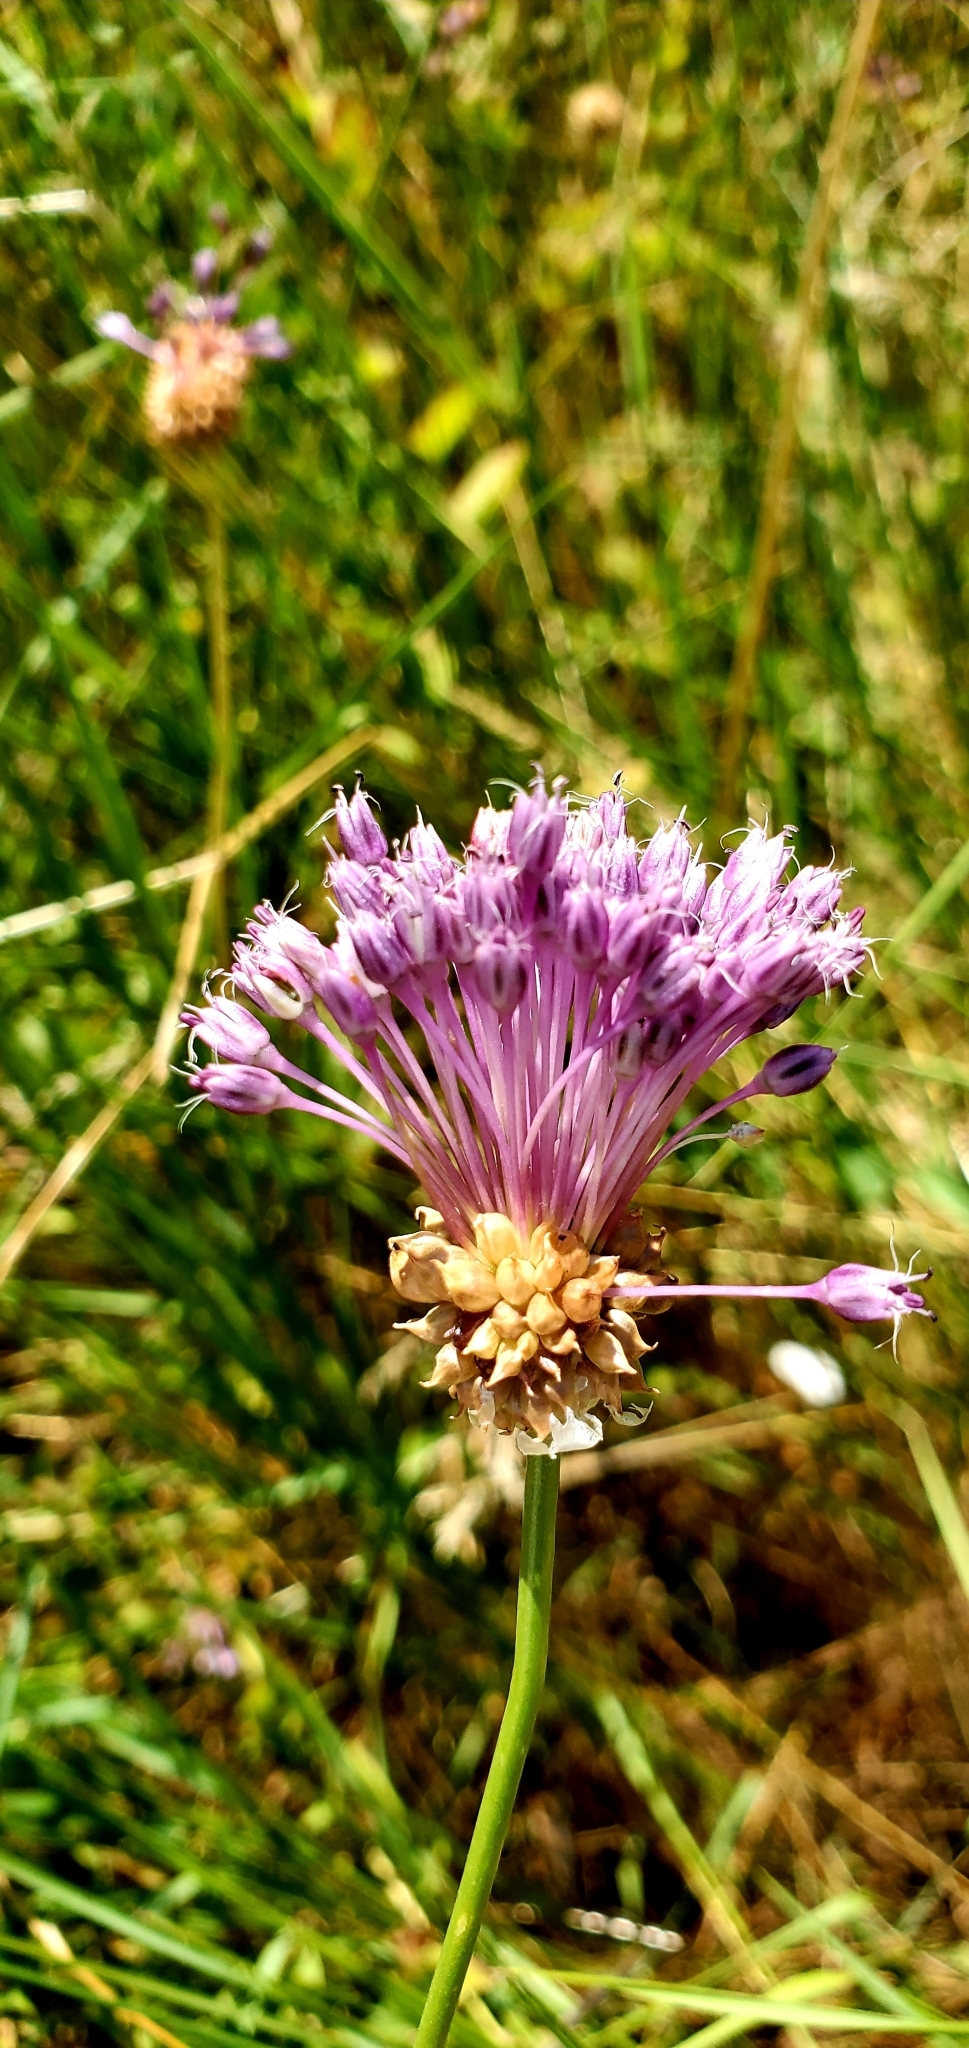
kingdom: Plantae
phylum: Tracheophyta
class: Liliopsida
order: Asparagales
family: Amaryllidaceae
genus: Allium
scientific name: Allium vineale
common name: Crow garlic
